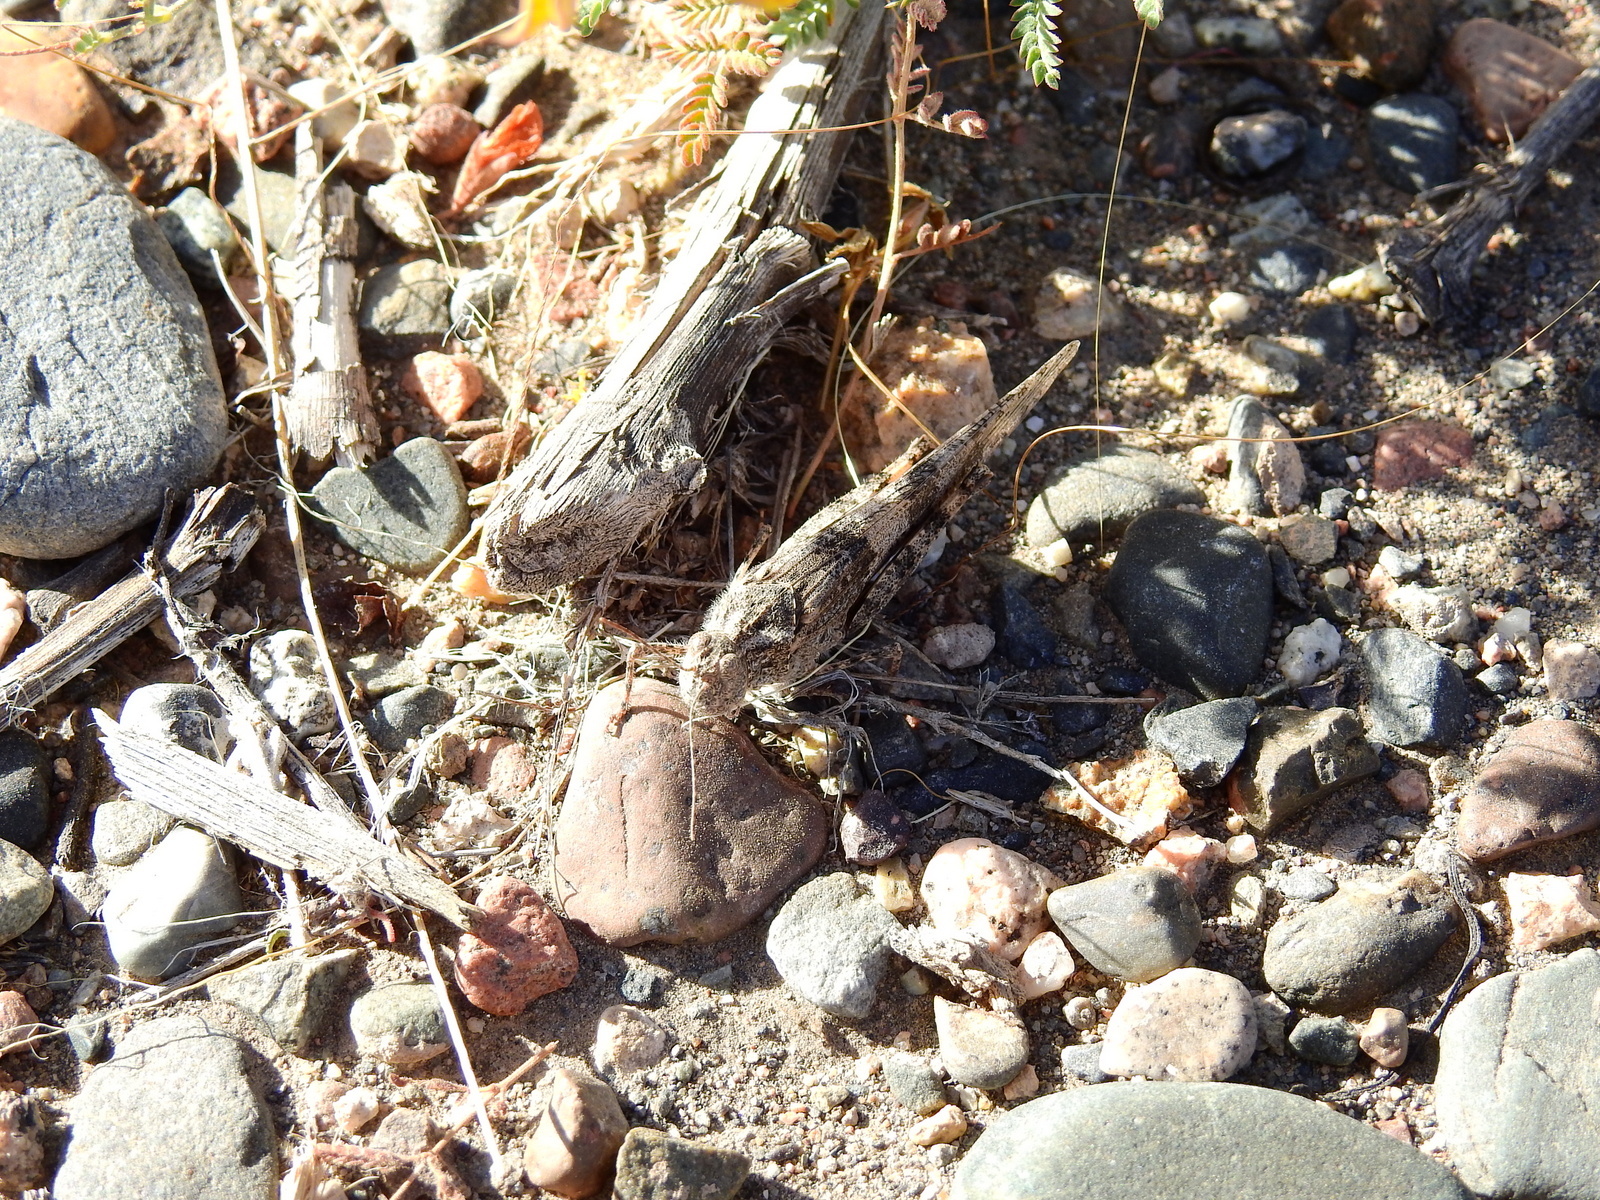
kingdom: Animalia
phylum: Arthropoda
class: Insecta
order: Orthoptera
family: Acrididae
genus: Trimerotropis
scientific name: Trimerotropis pallidipennis
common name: Pallid-winged grasshopper
